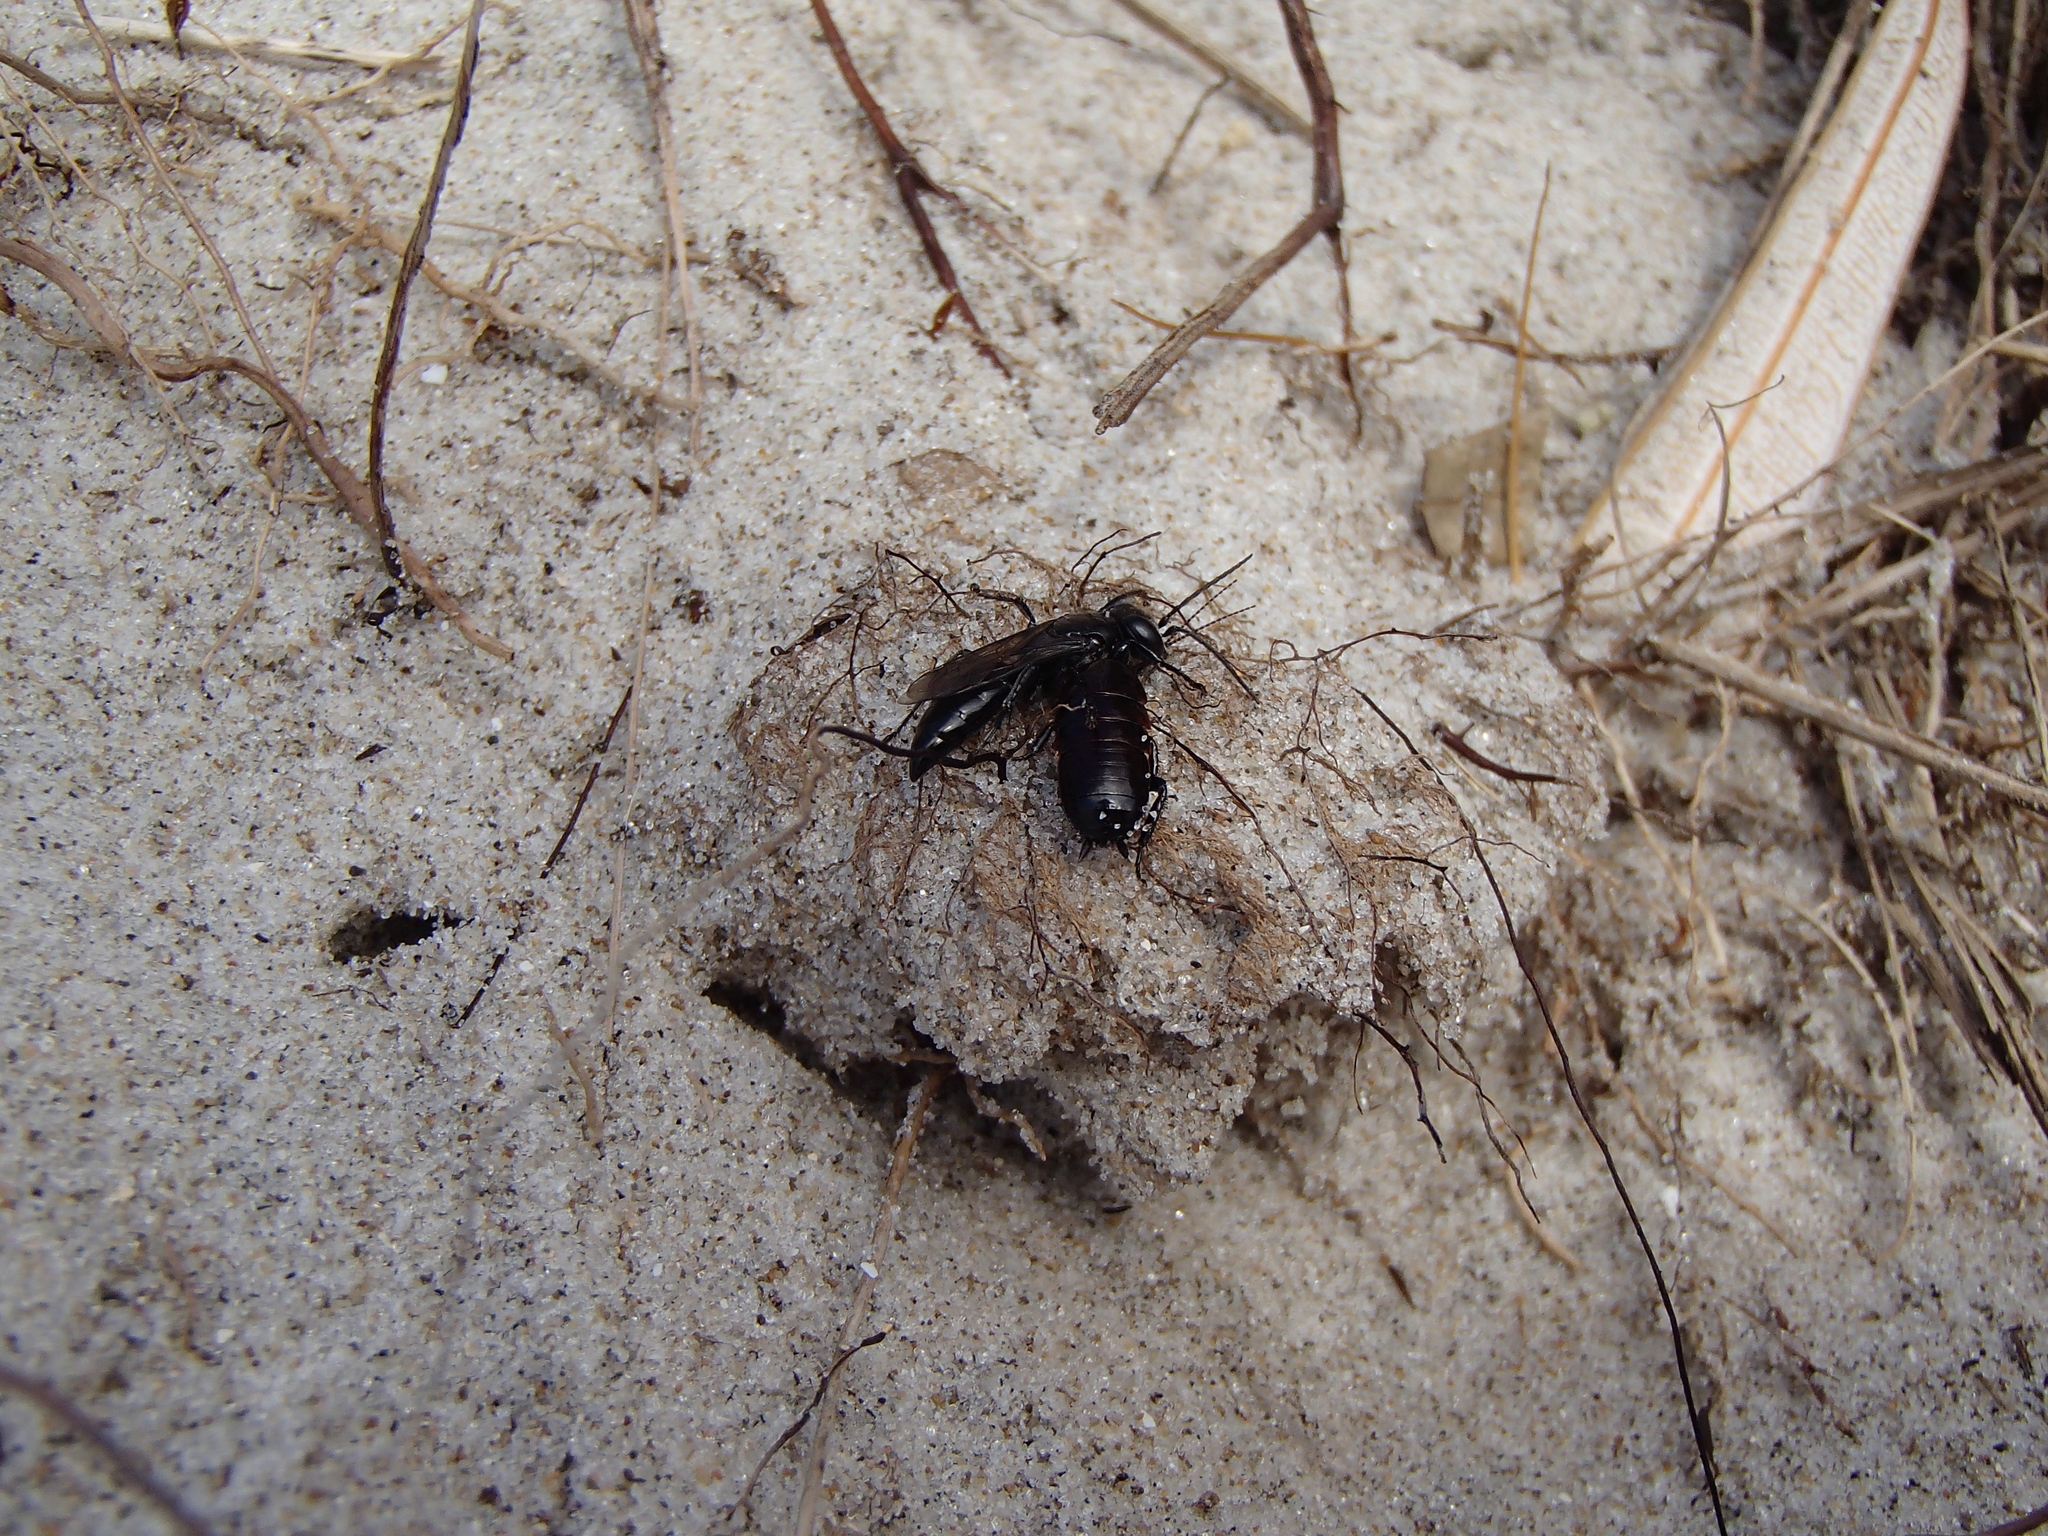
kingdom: Animalia
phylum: Arthropoda
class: Insecta
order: Hymenoptera
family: Crabronidae
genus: Tachysphex
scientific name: Tachysphex nigerrimus
